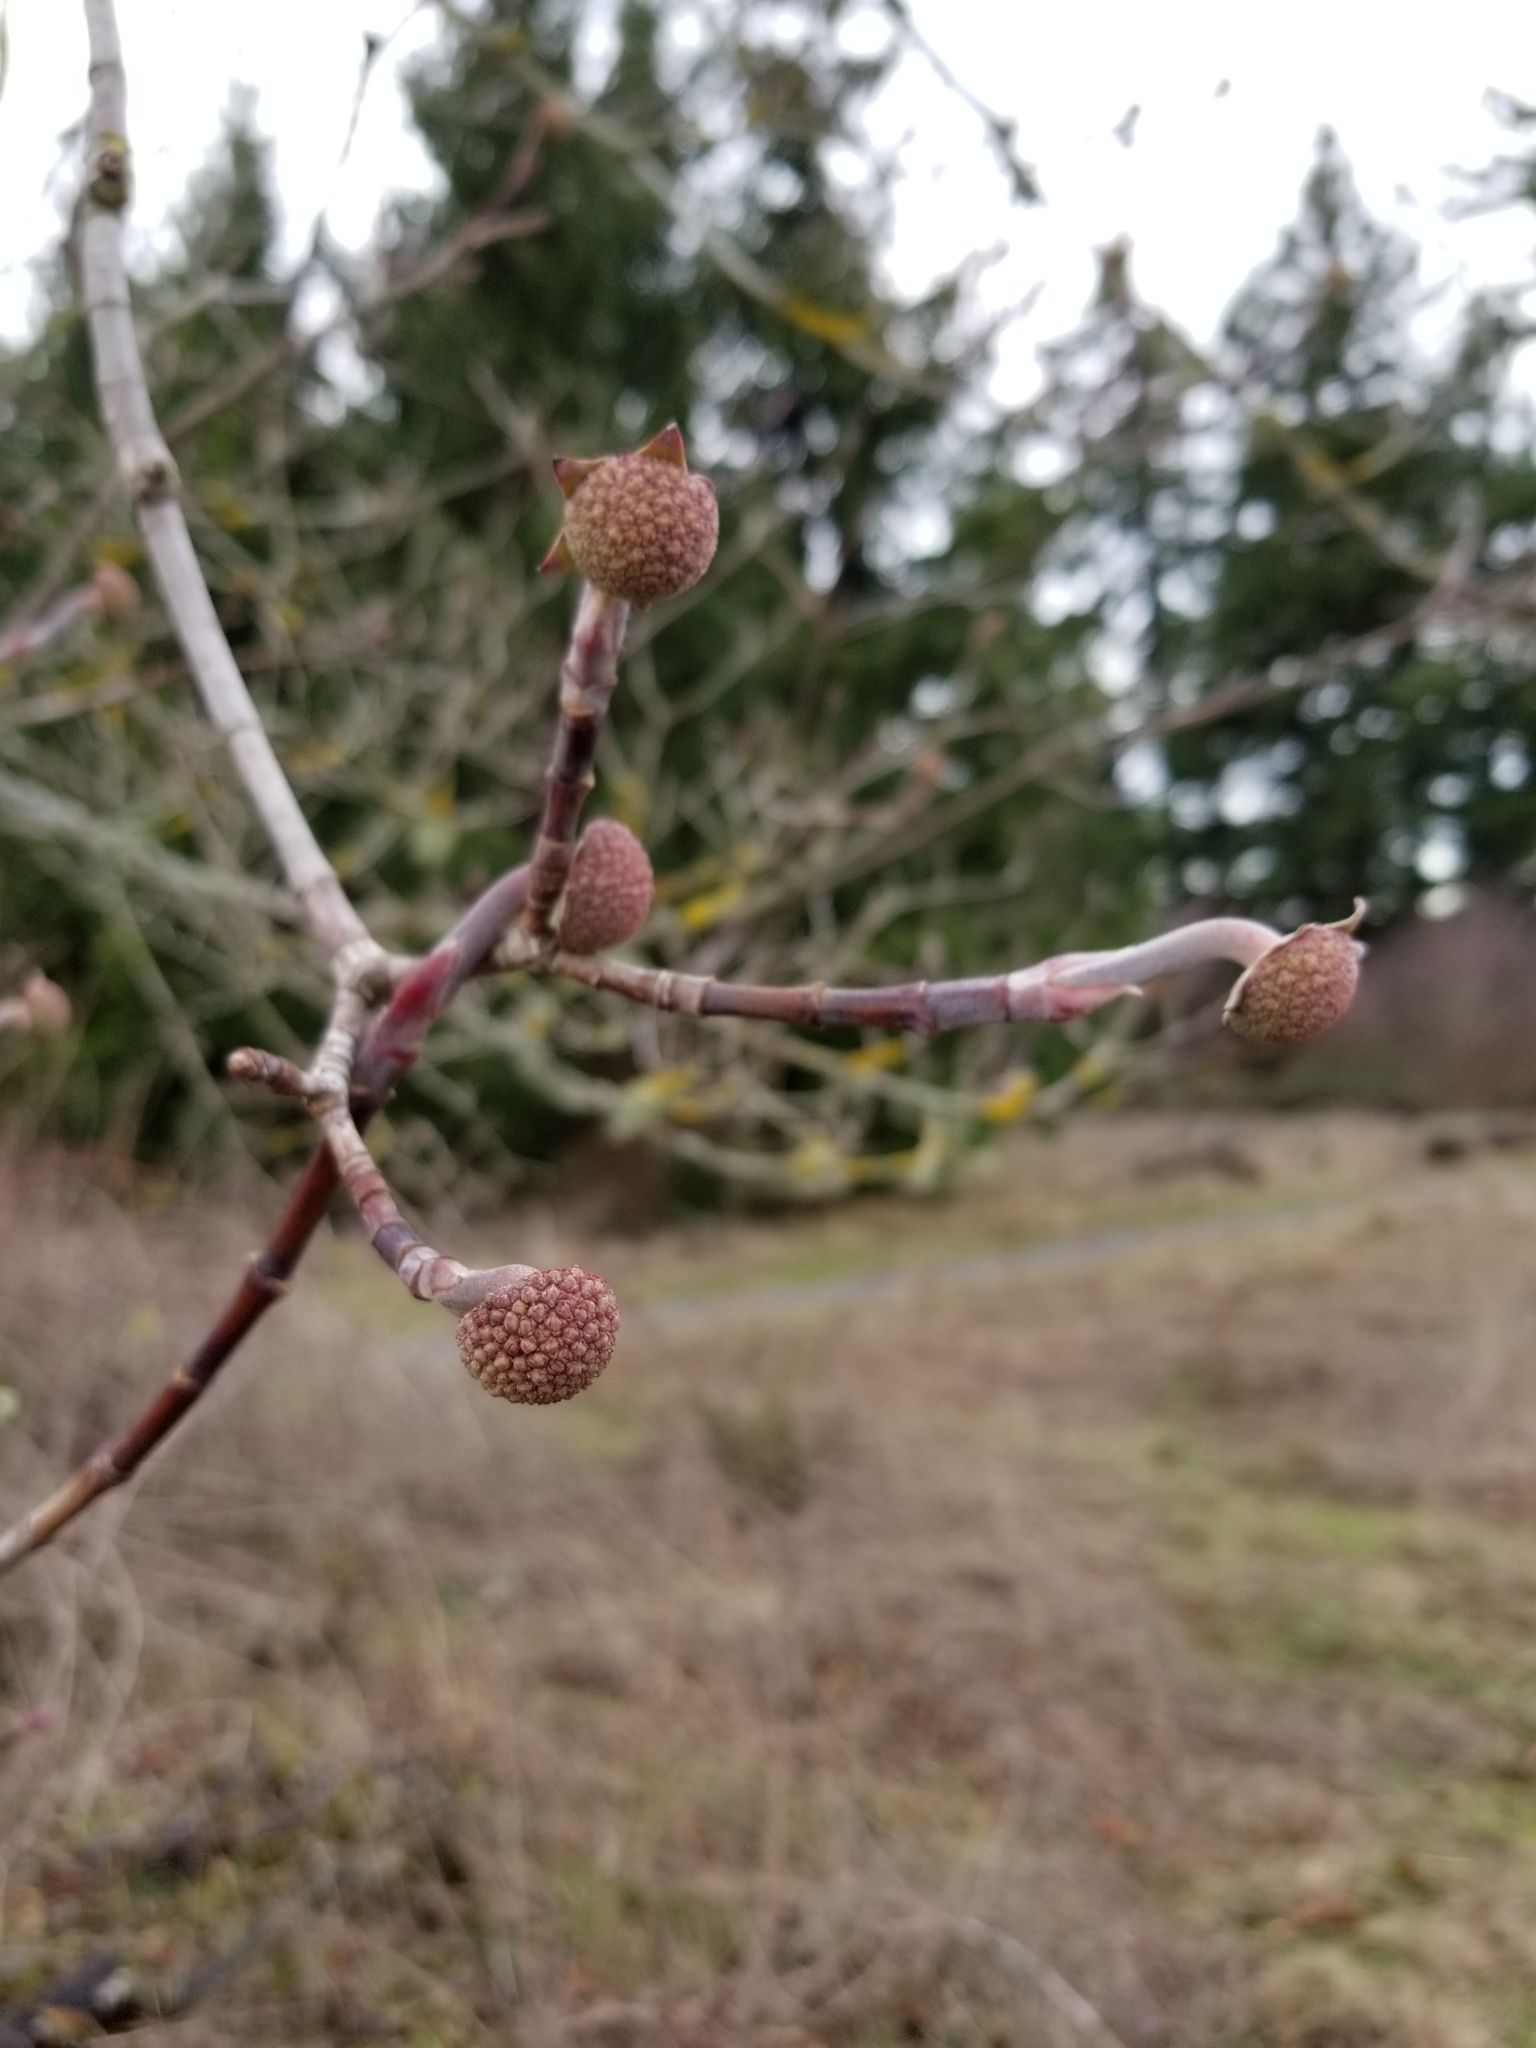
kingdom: Plantae
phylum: Tracheophyta
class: Magnoliopsida
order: Cornales
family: Cornaceae
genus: Cornus
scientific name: Cornus sericea
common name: Red-osier dogwood
